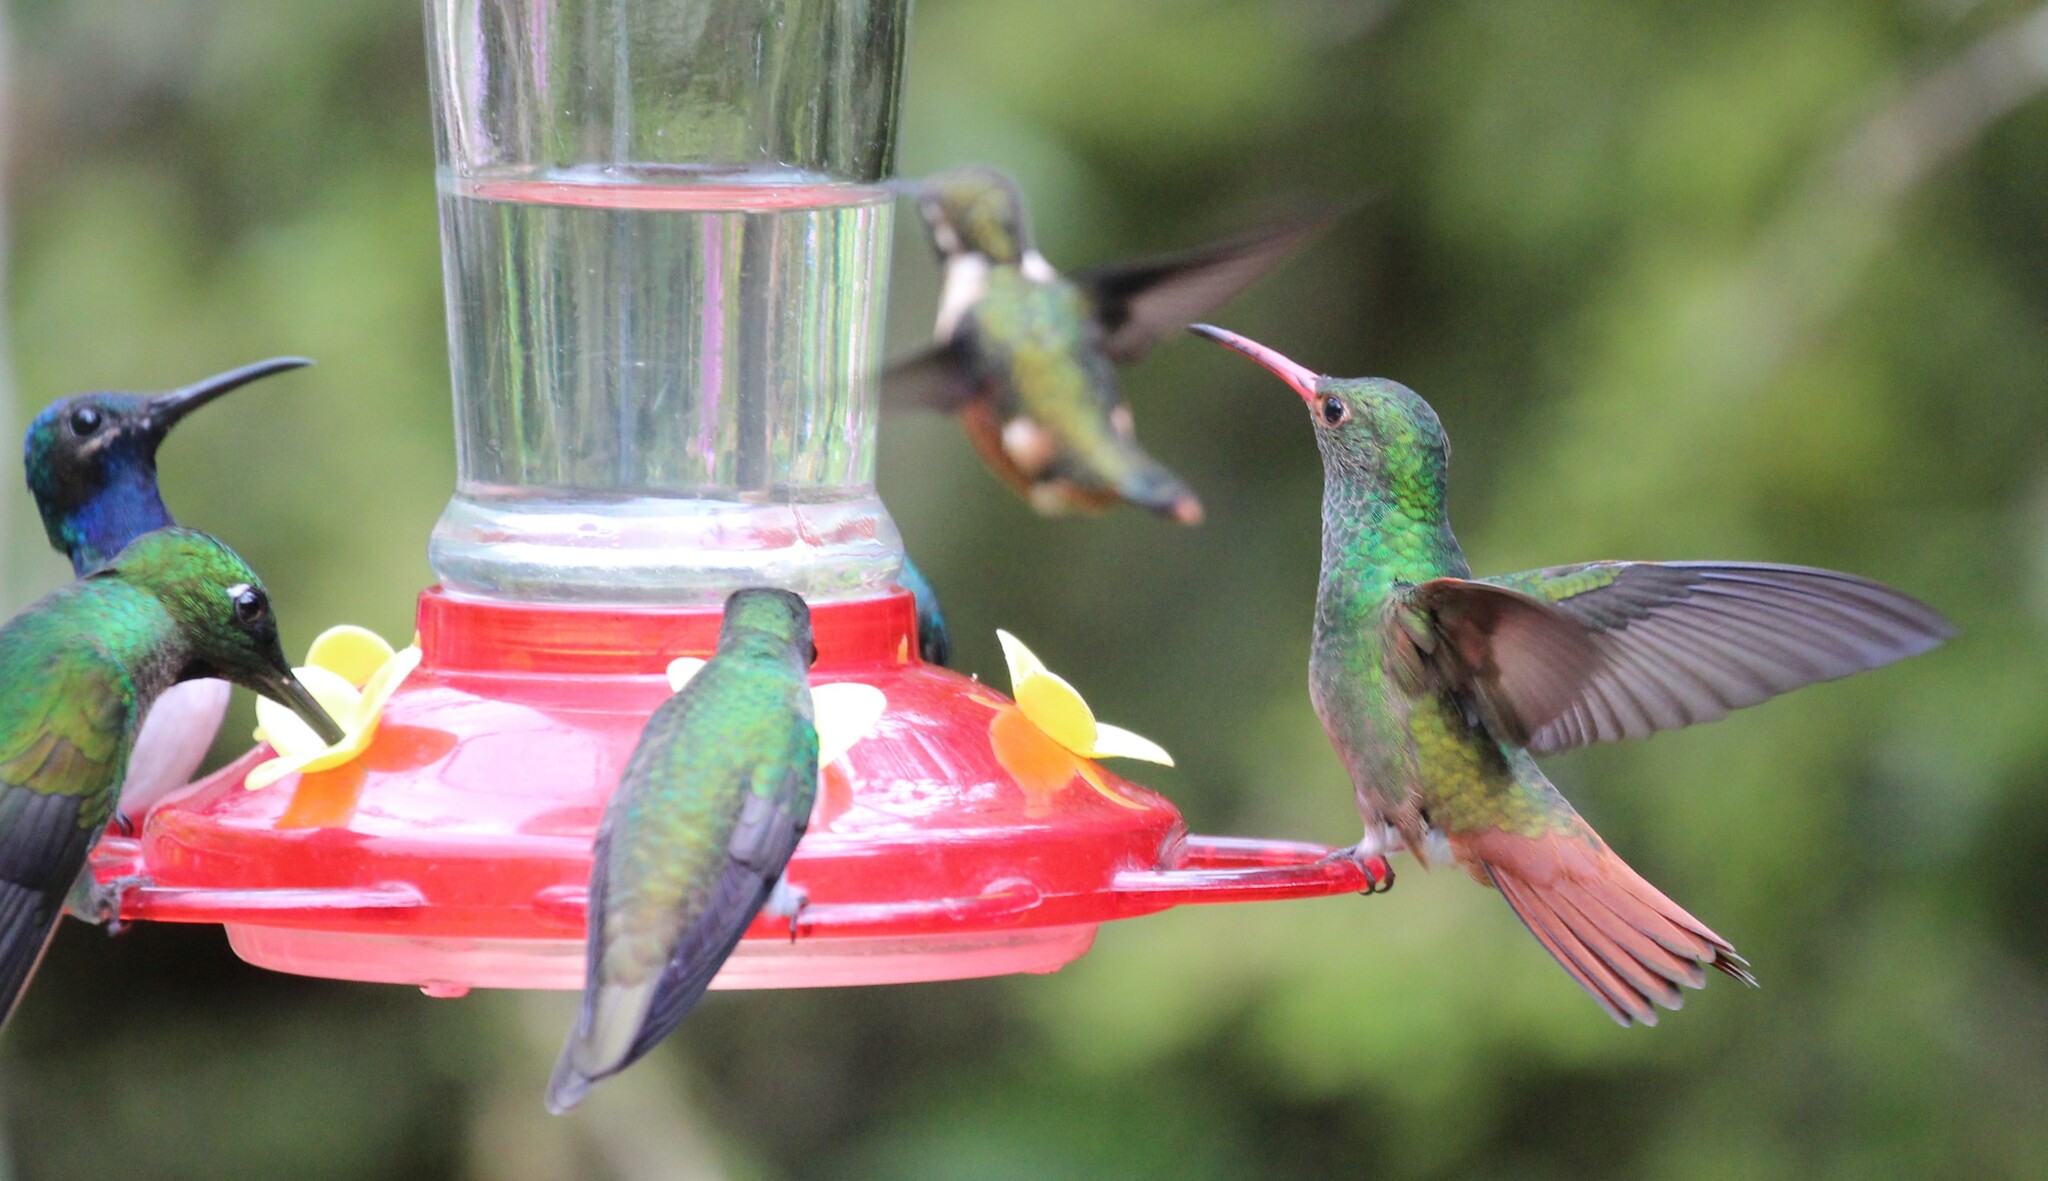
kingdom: Animalia
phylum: Chordata
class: Aves
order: Apodiformes
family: Trochilidae
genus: Amazilia
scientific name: Amazilia tzacatl
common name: Rufous-tailed hummingbird
